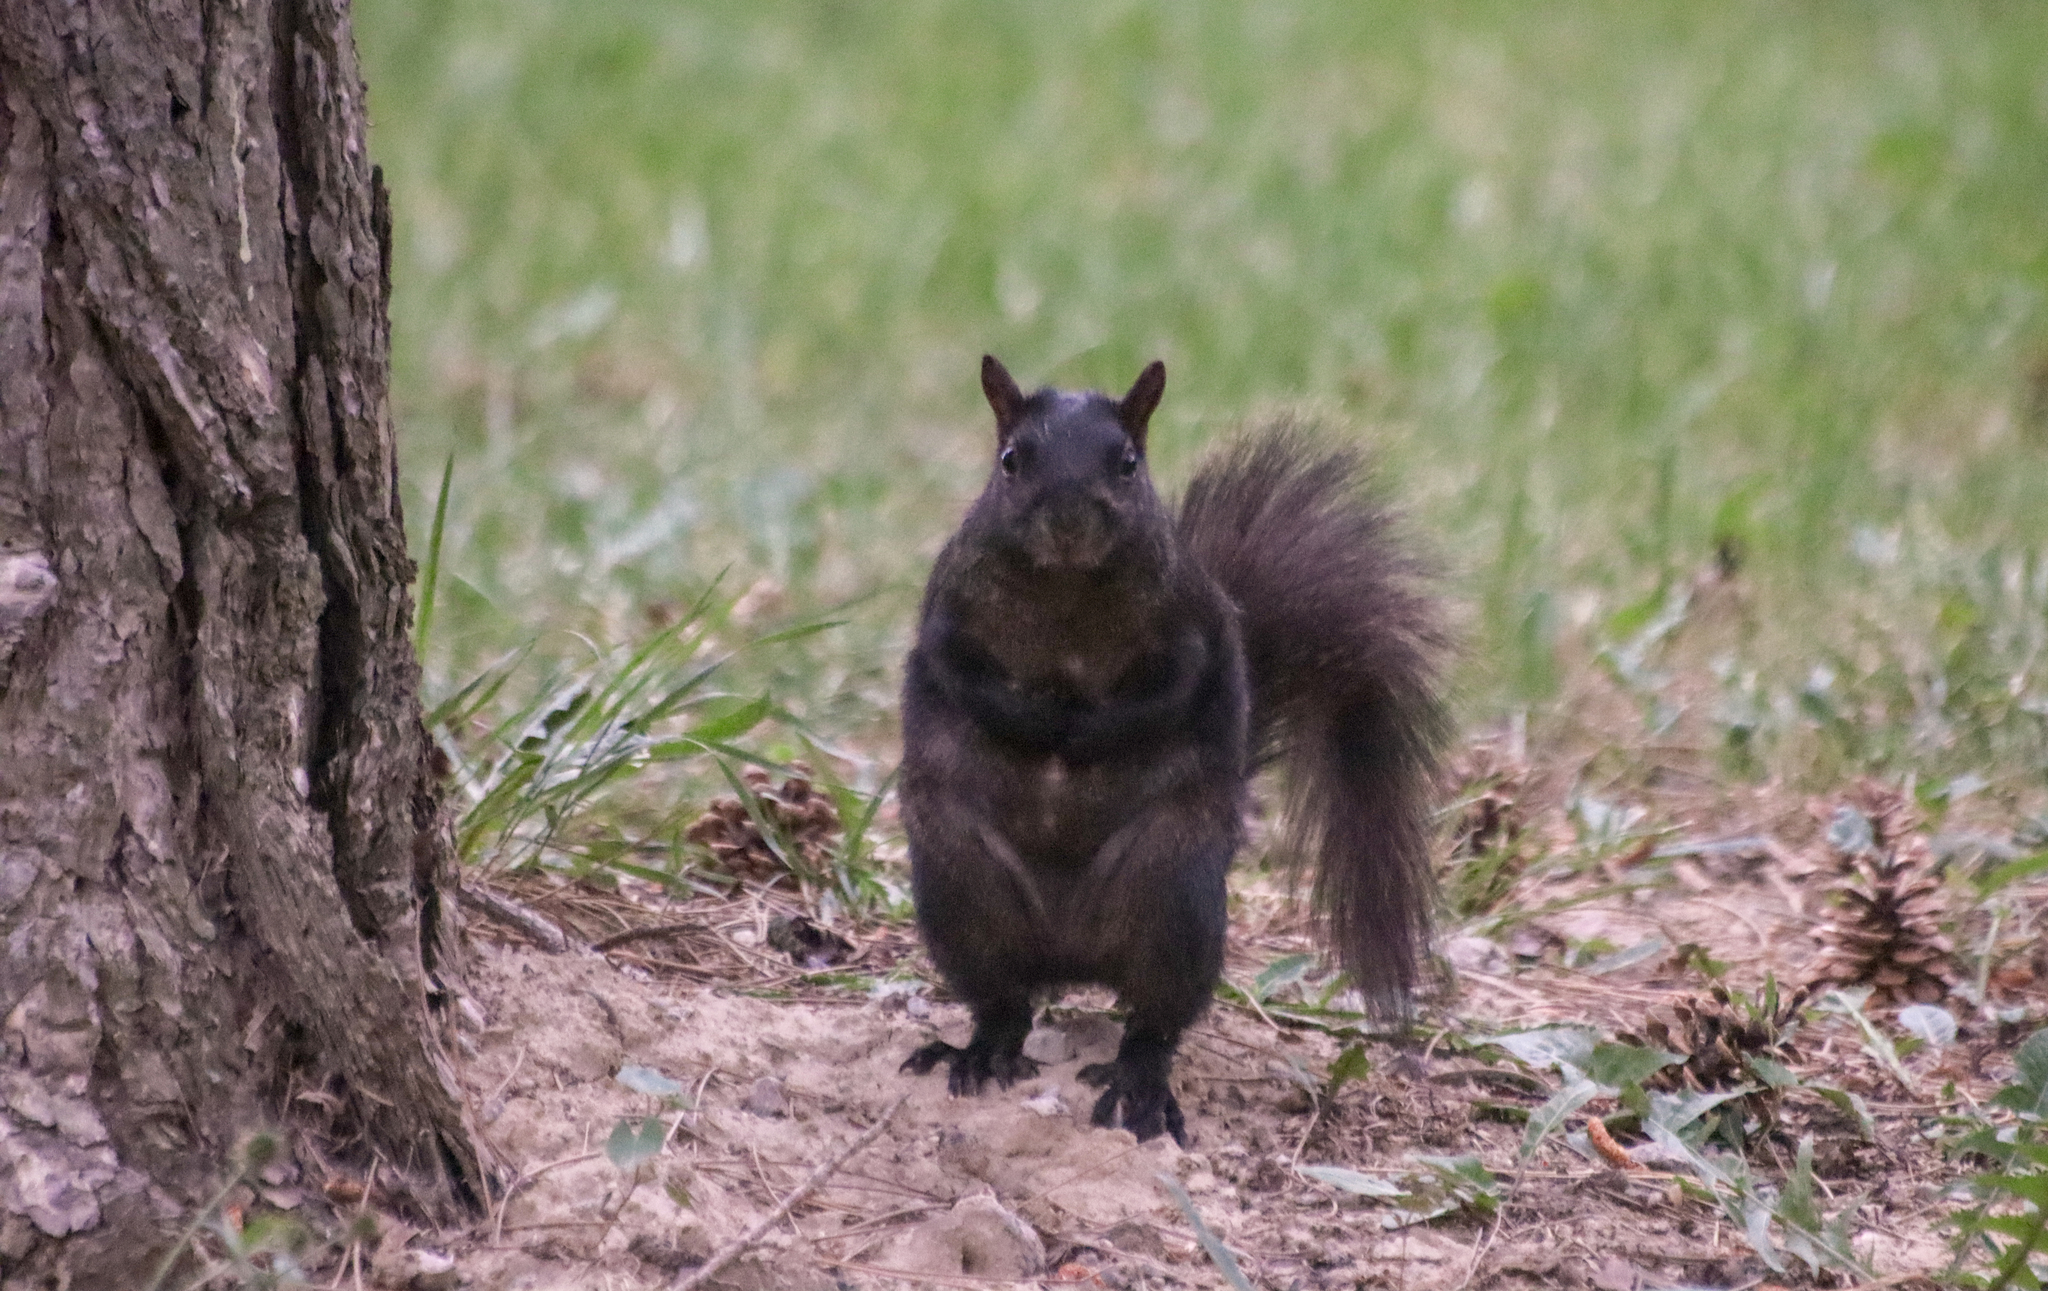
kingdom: Animalia
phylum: Chordata
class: Mammalia
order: Rodentia
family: Sciuridae
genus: Sciurus
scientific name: Sciurus carolinensis
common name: Eastern gray squirrel
